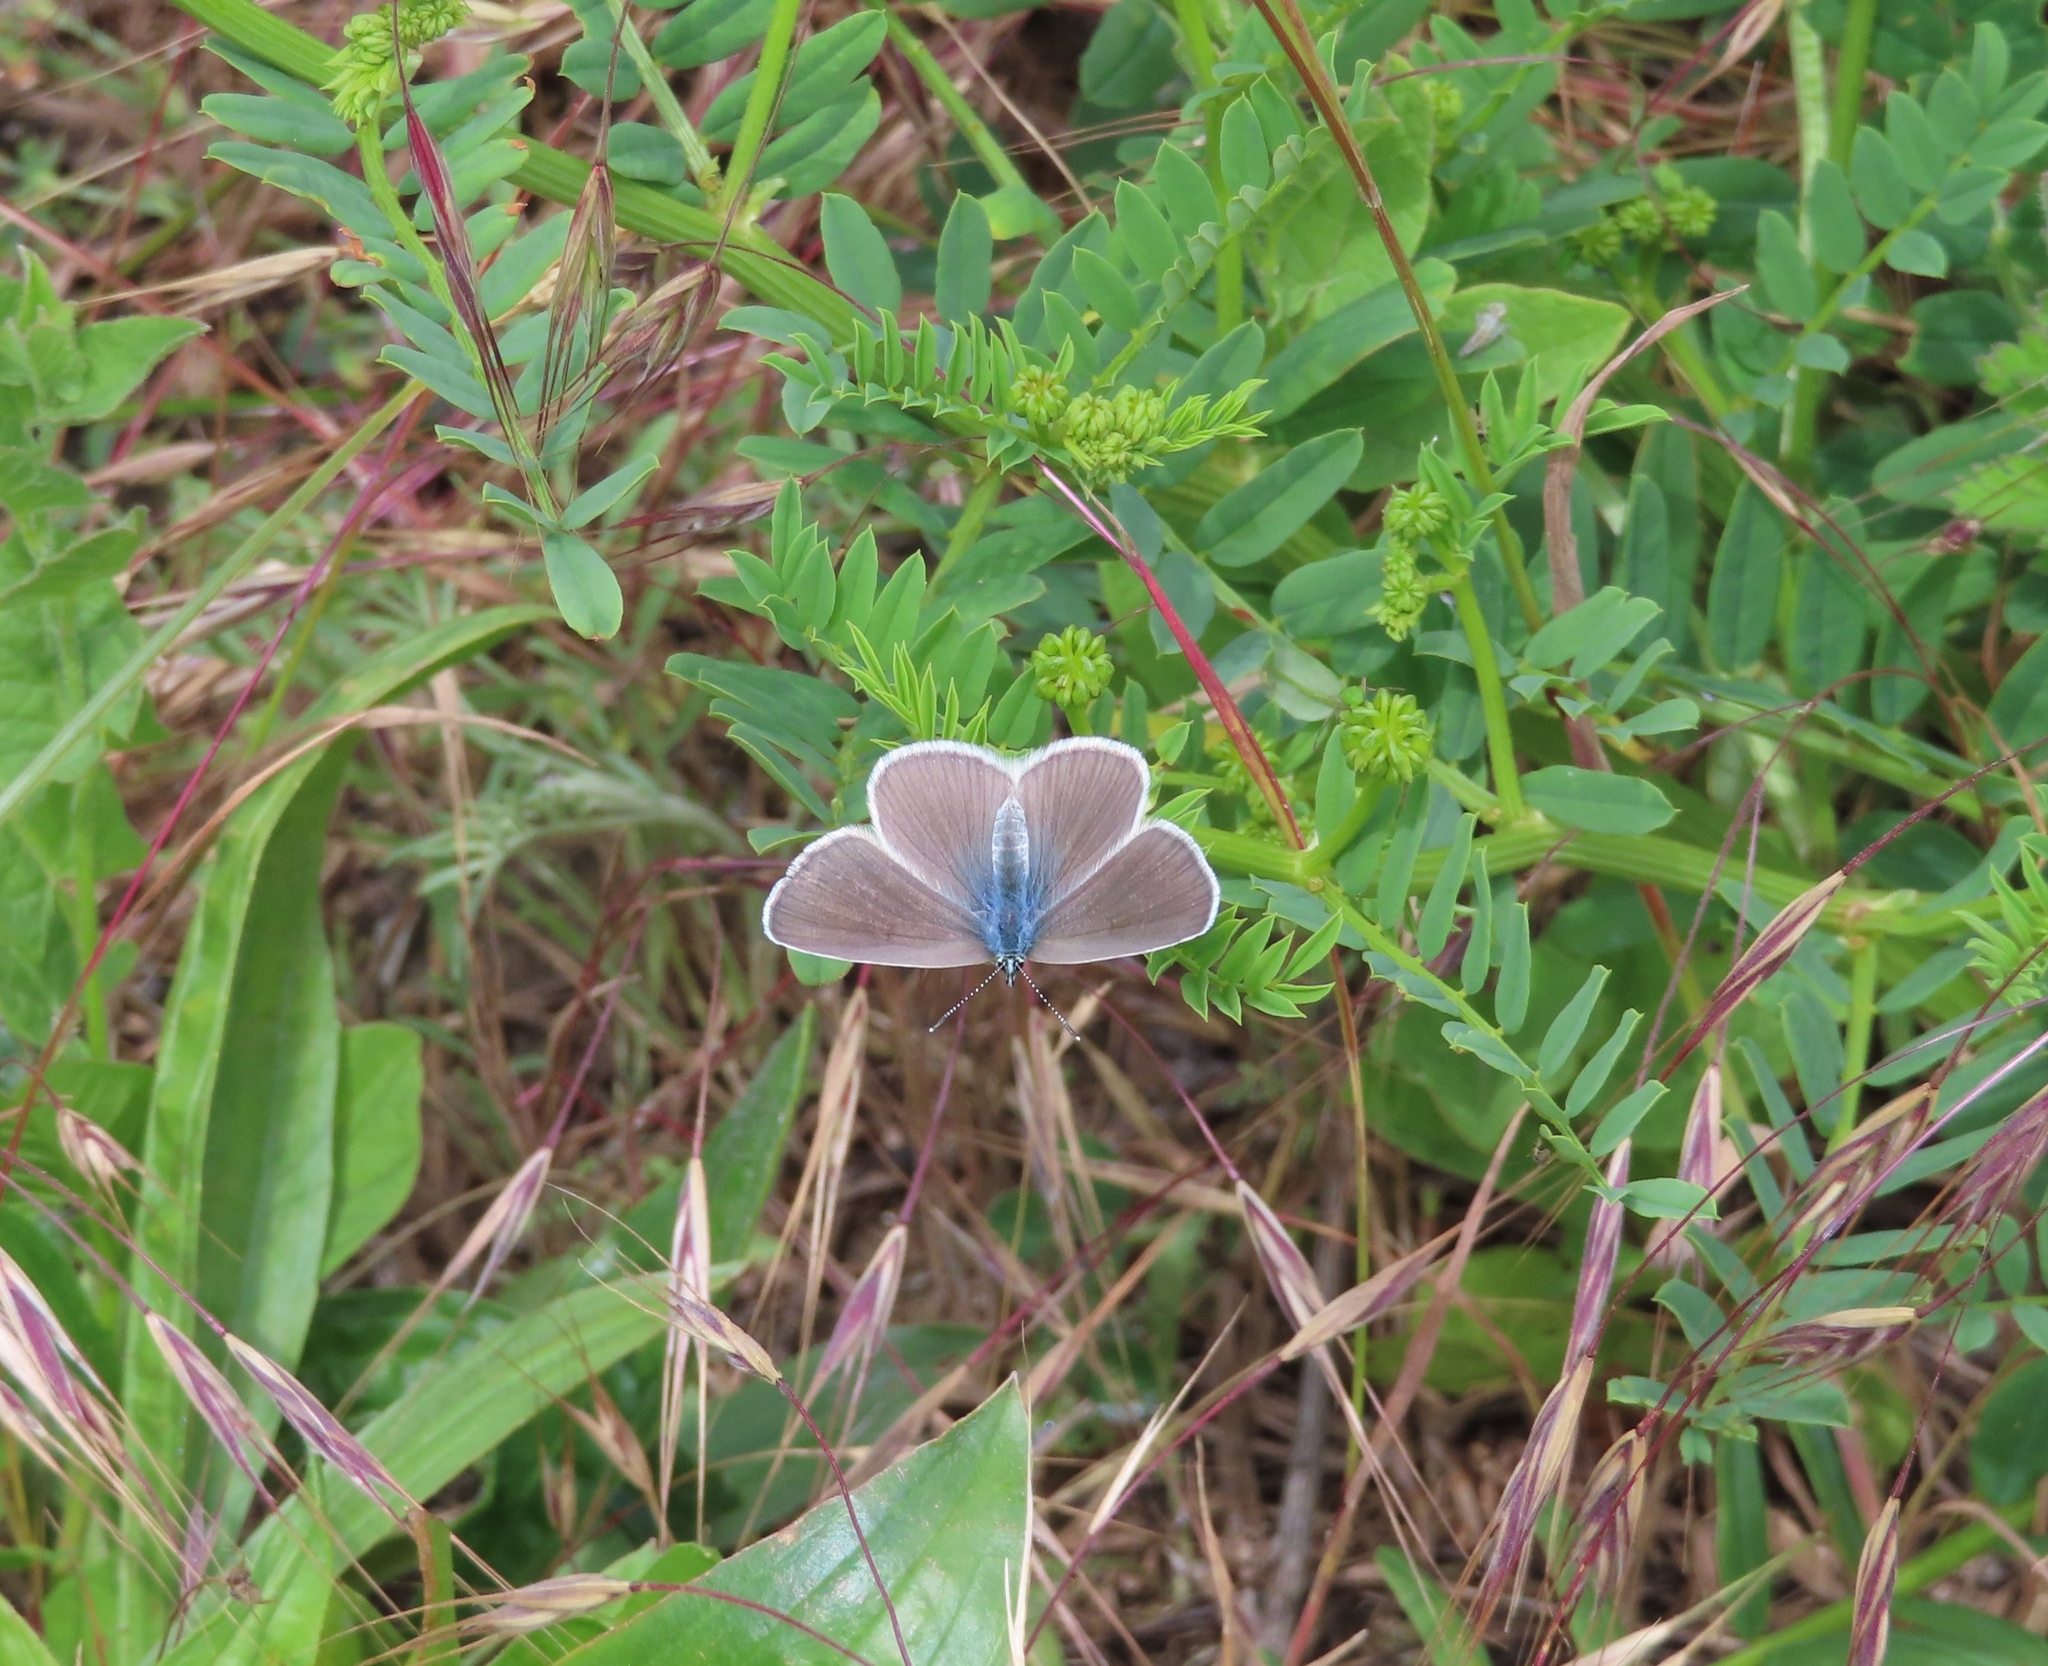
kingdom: Animalia
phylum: Arthropoda
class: Insecta
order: Lepidoptera
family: Lycaenidae
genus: Everes
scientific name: Everes sebrus
